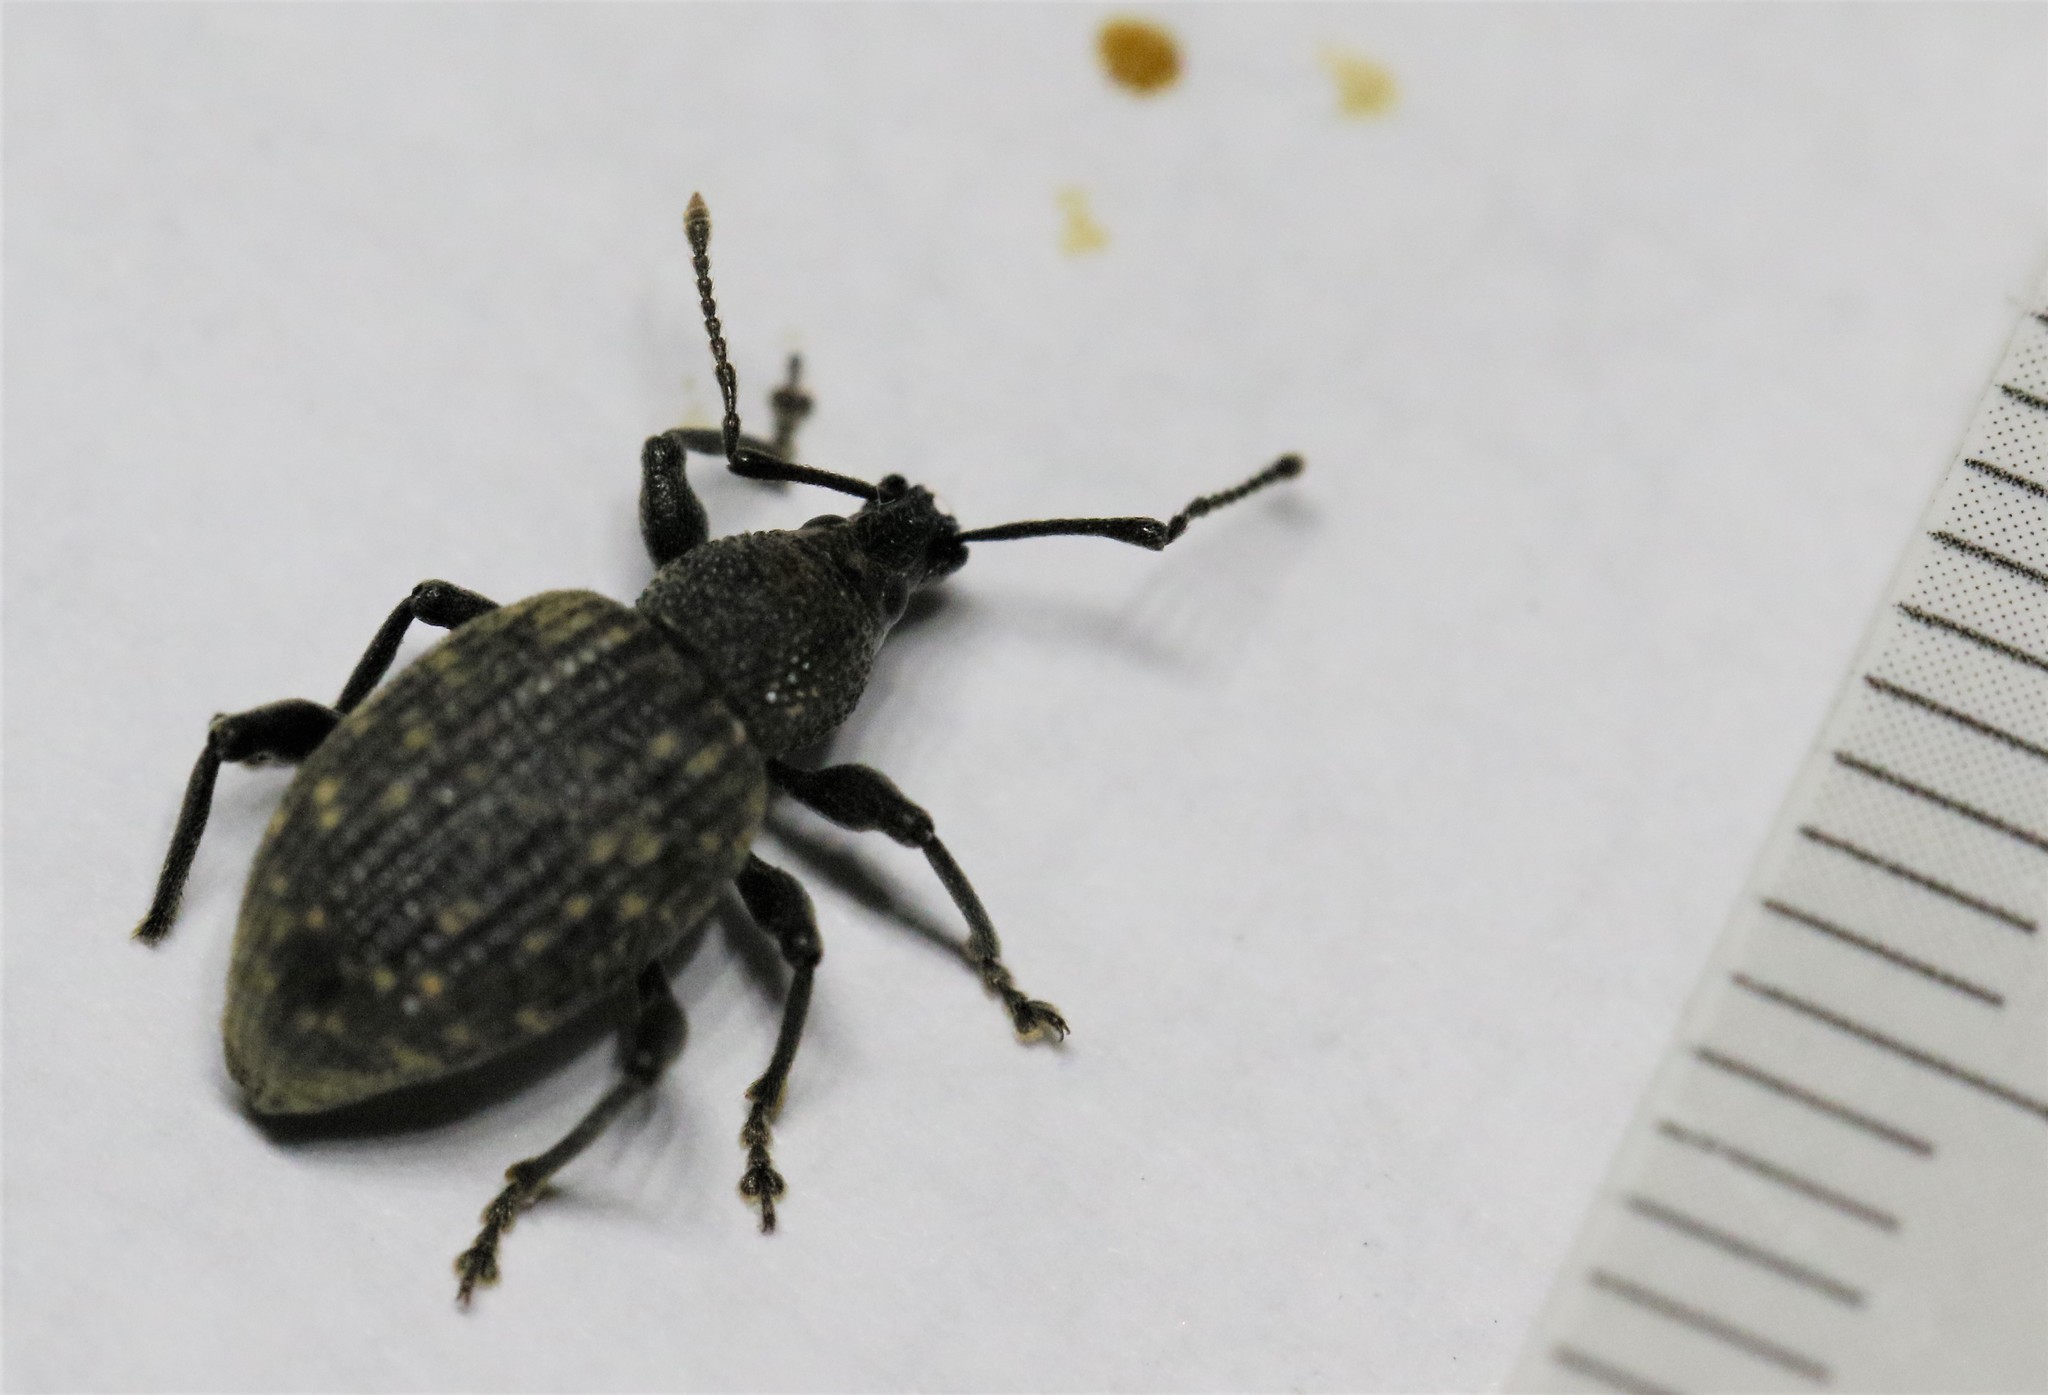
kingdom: Animalia
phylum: Arthropoda
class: Insecta
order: Coleoptera
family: Curculionidae
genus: Otiorhynchus
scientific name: Otiorhynchus sulcatus
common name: Black vine weevil
